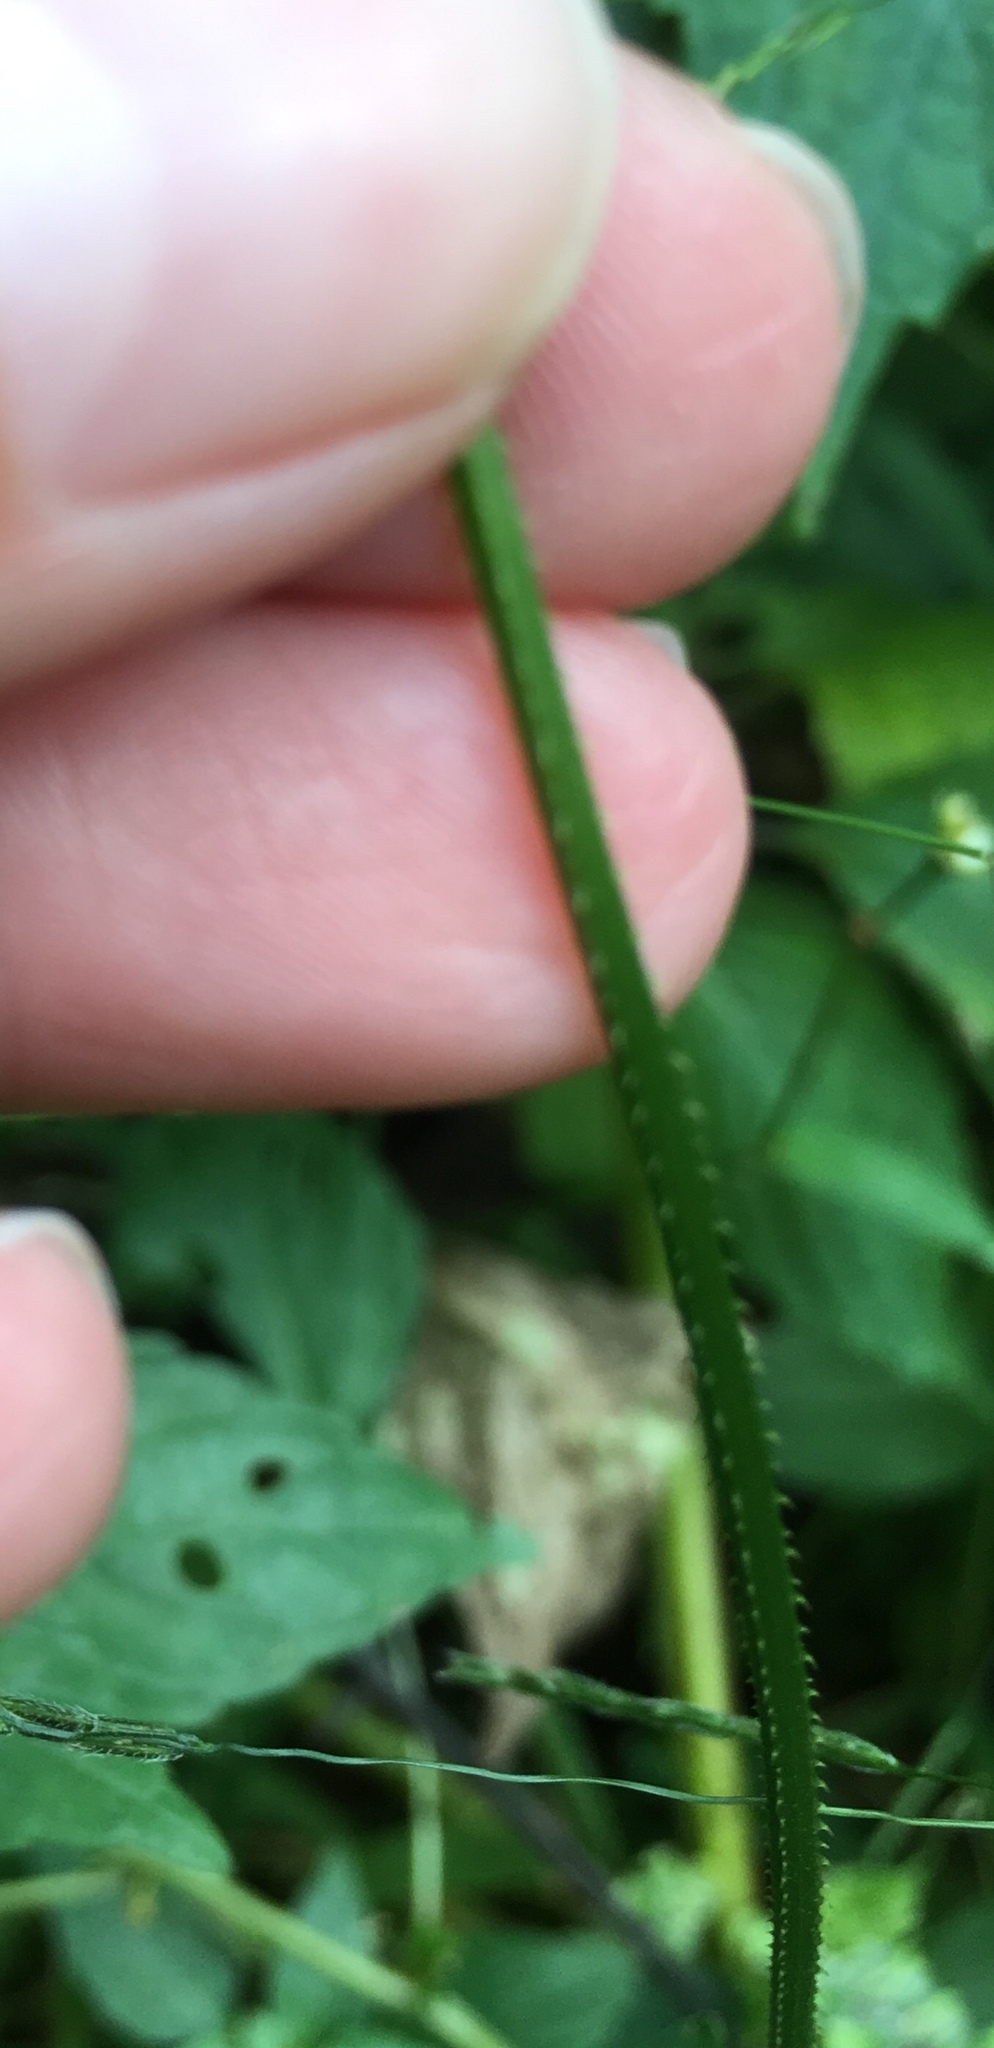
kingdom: Plantae
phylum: Tracheophyta
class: Magnoliopsida
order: Caryophyllales
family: Polygonaceae
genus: Persicaria
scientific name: Persicaria sagittata
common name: American tearthumb
